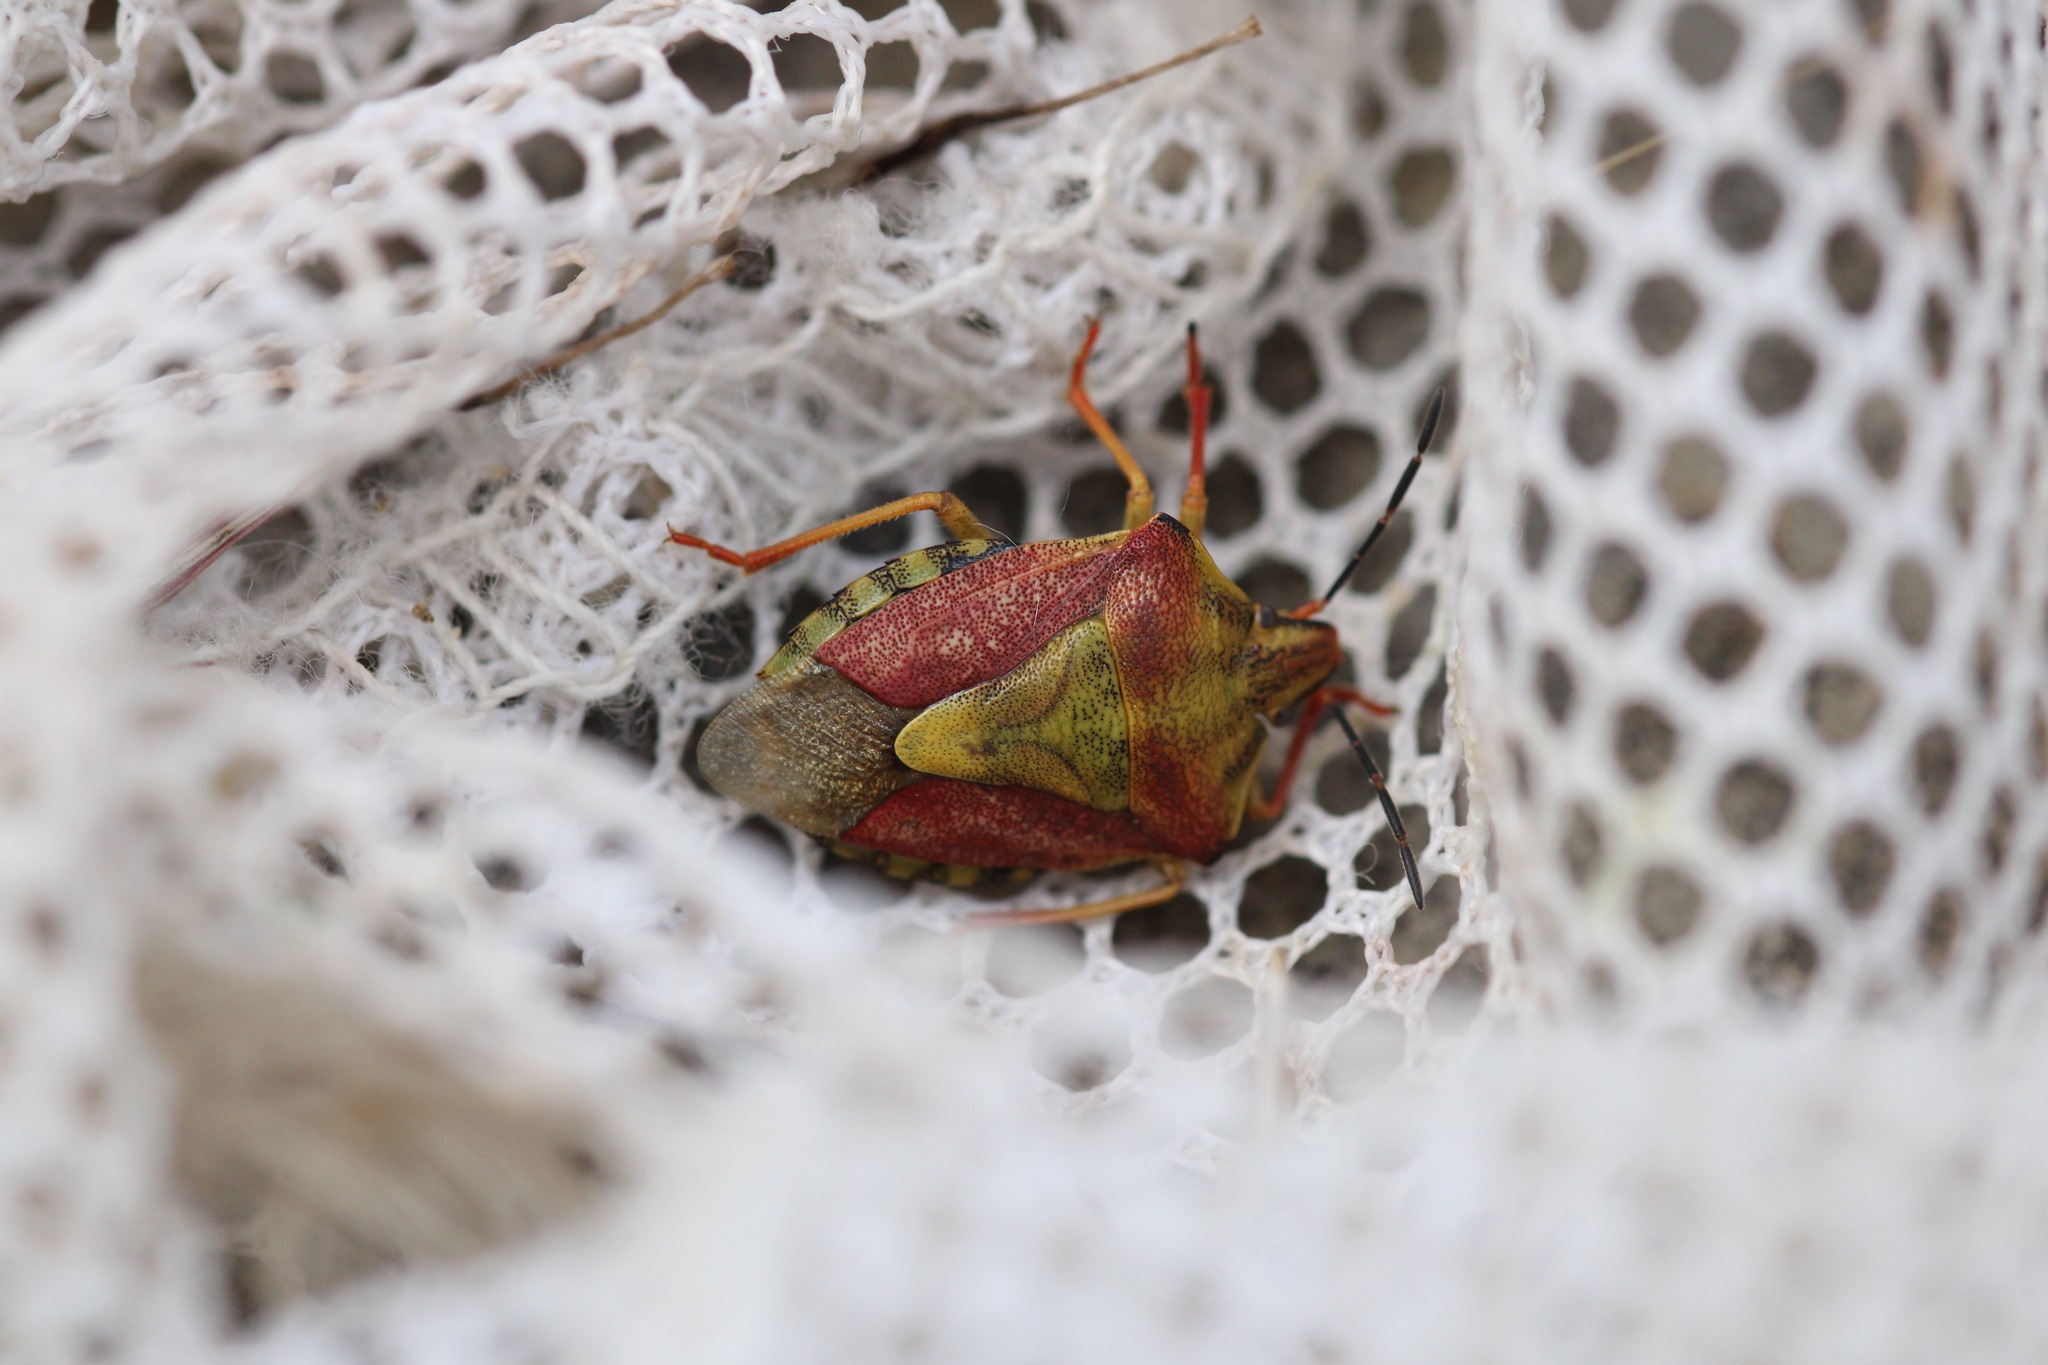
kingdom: Animalia
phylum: Arthropoda
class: Insecta
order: Hemiptera
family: Pentatomidae
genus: Carpocoris
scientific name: Carpocoris purpureipennis
